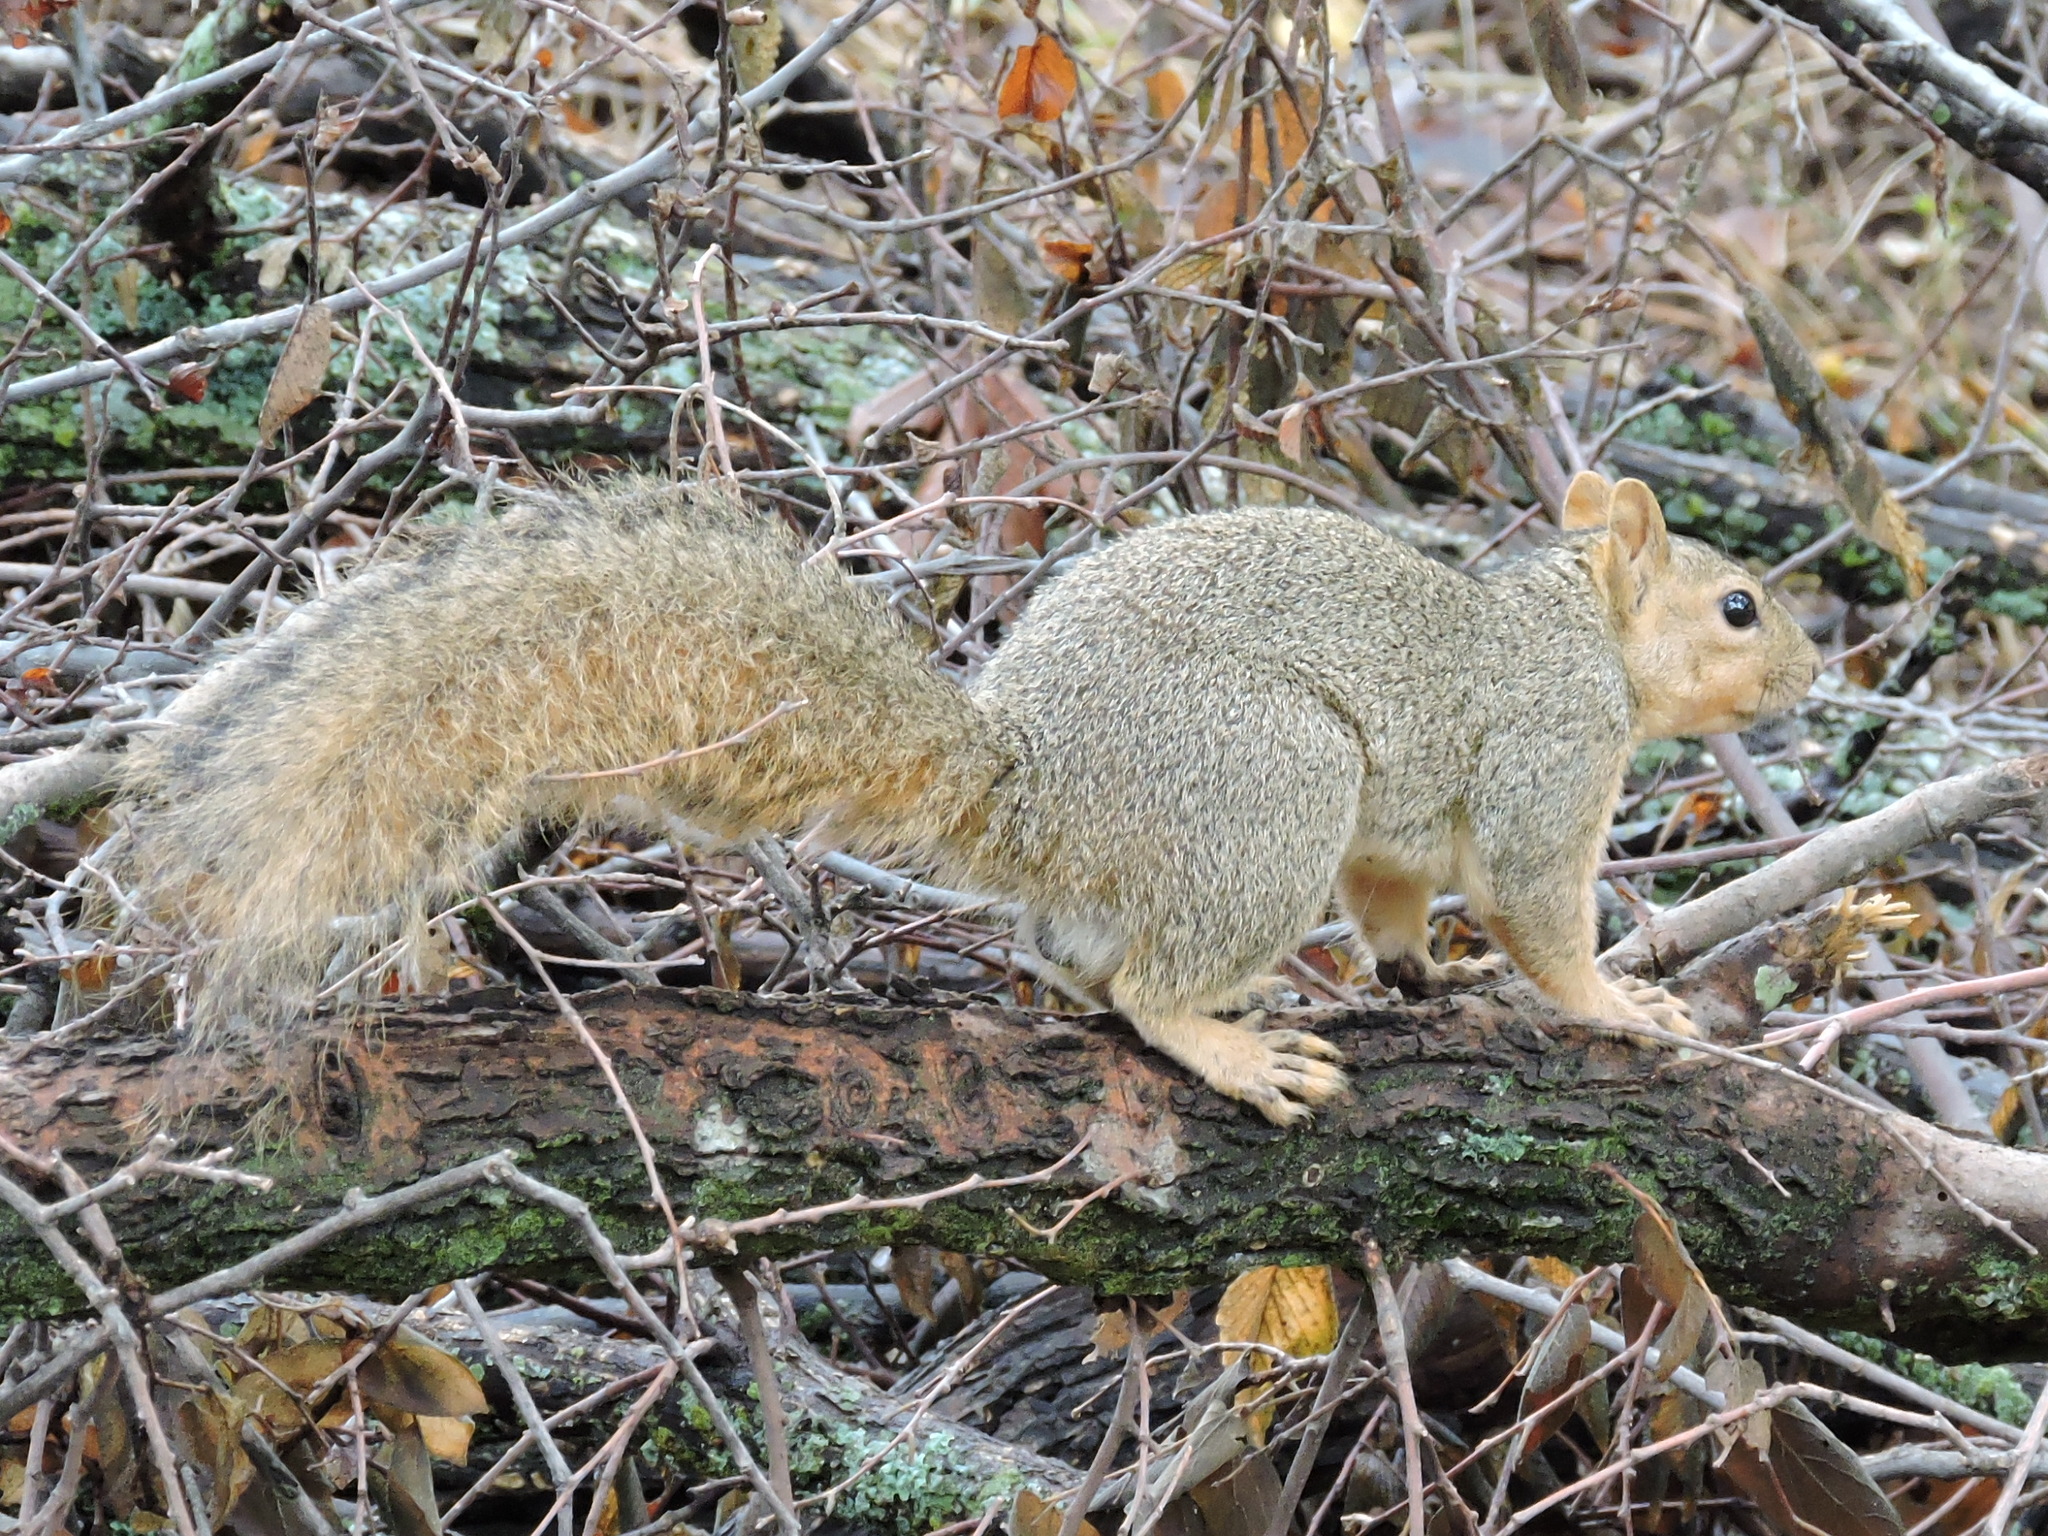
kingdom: Animalia
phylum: Chordata
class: Mammalia
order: Rodentia
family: Sciuridae
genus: Sciurus
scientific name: Sciurus niger
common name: Fox squirrel
